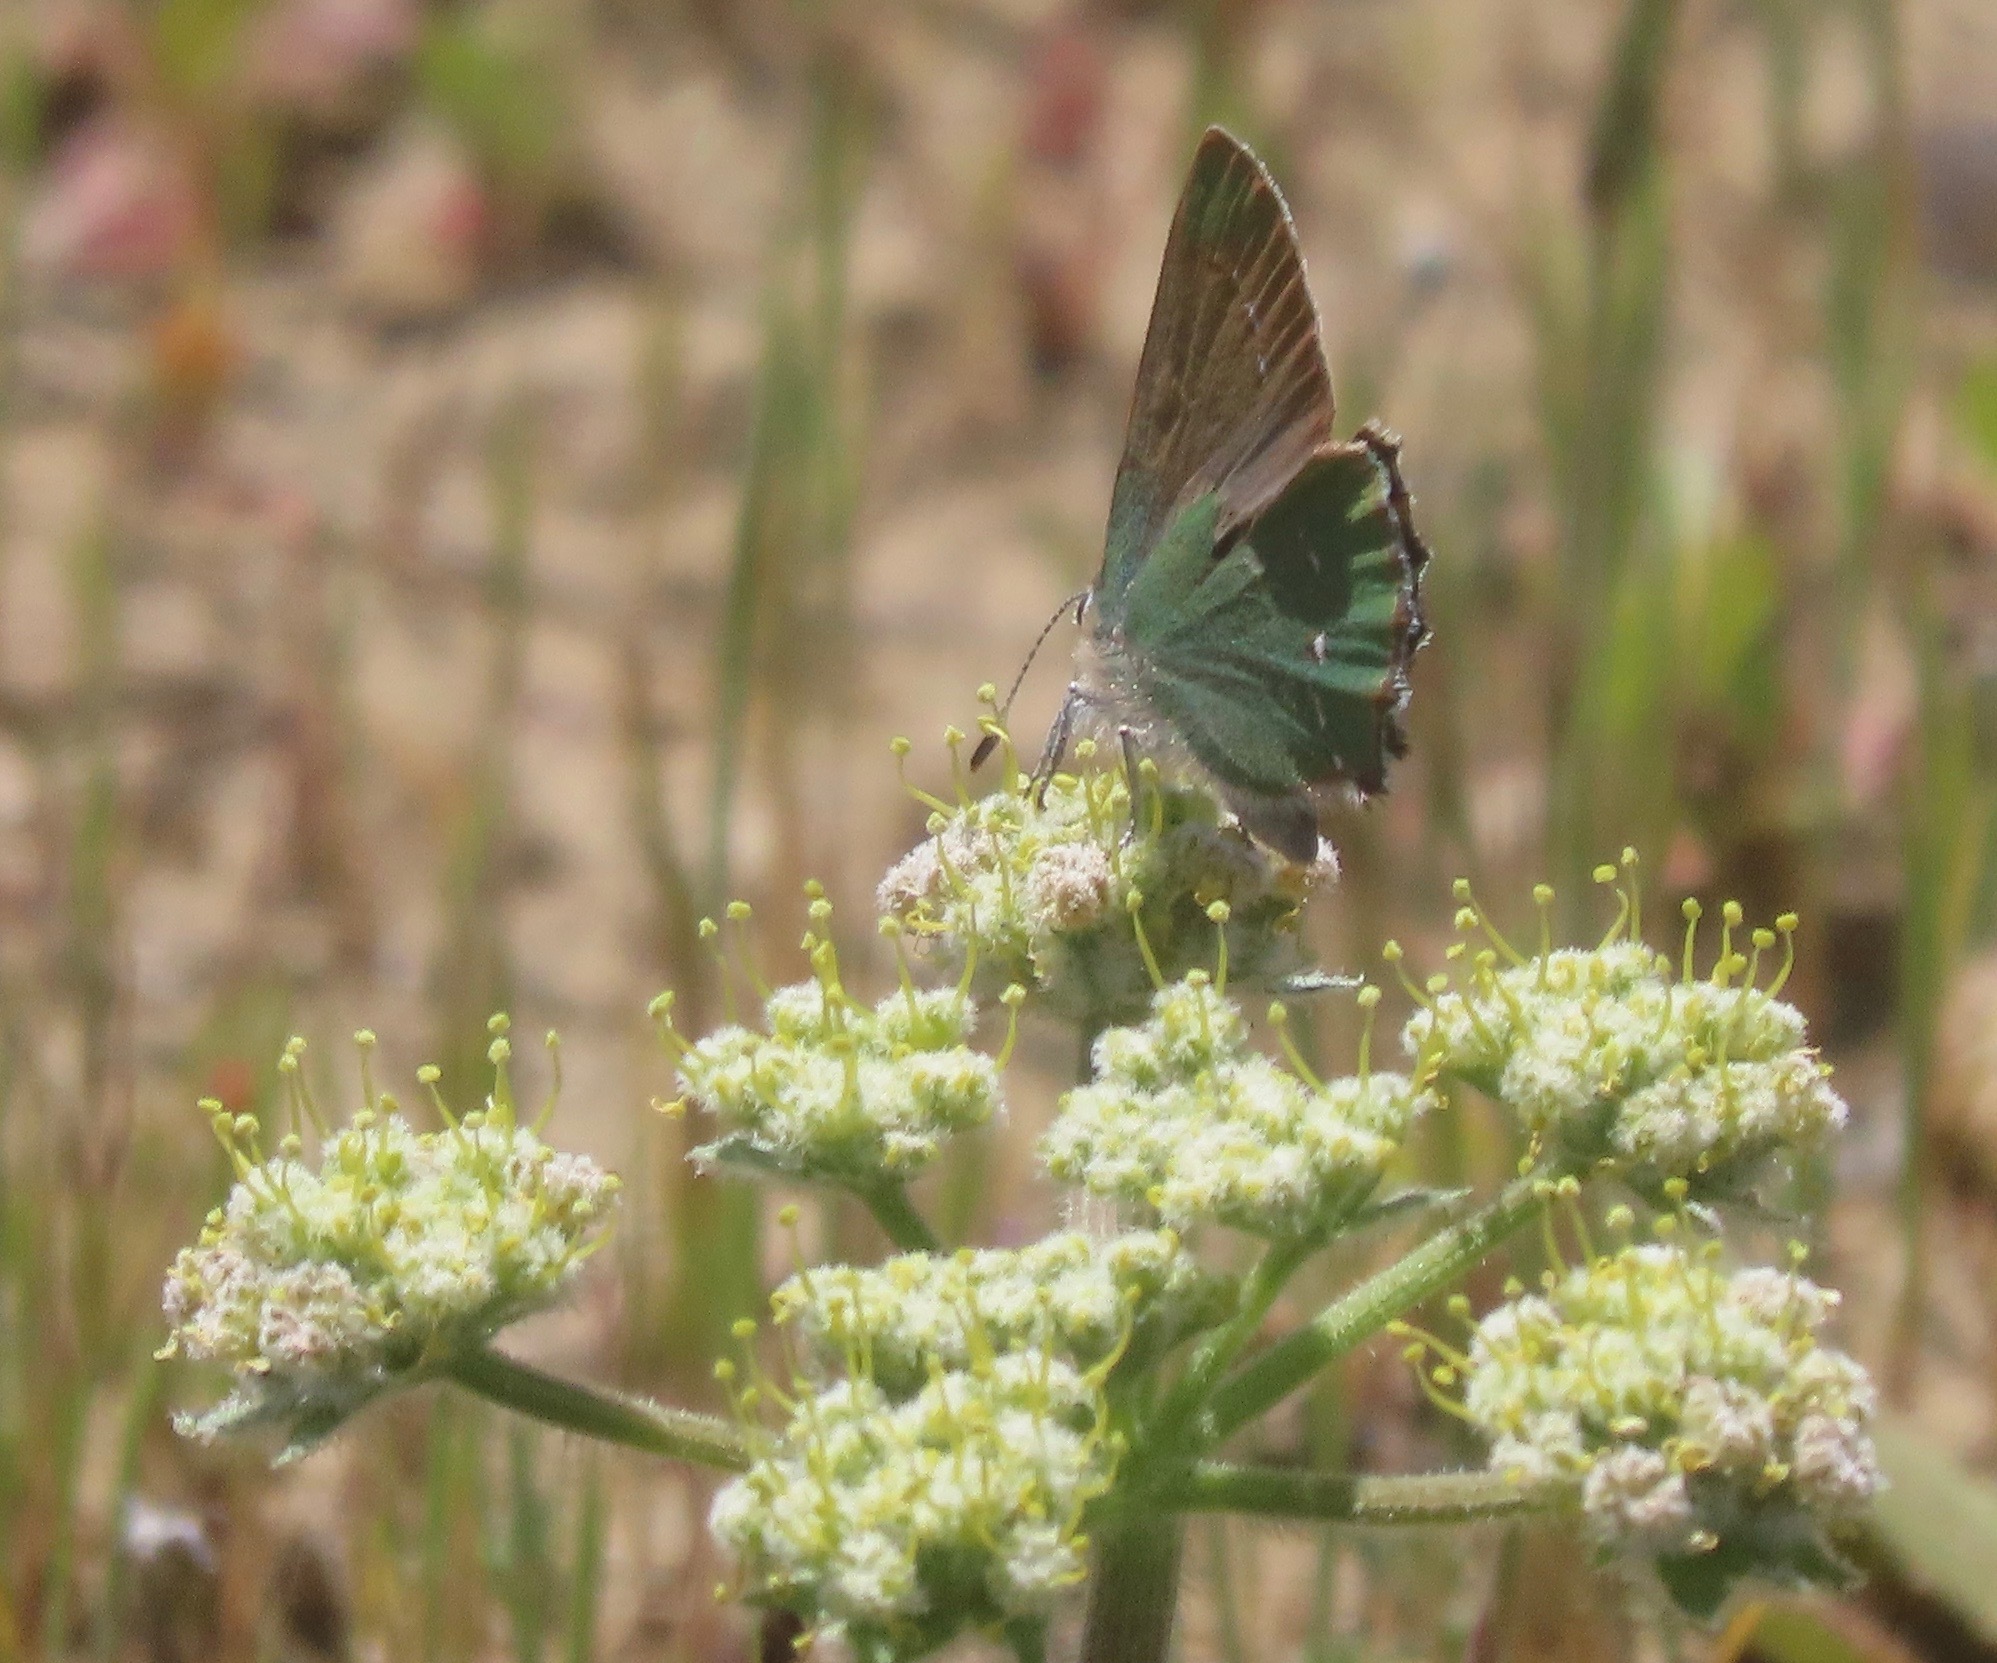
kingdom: Animalia
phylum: Arthropoda
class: Insecta
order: Lepidoptera
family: Lycaenidae
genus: Callophrys
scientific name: Callophrys dumetorum
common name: Bramble hairstreak
